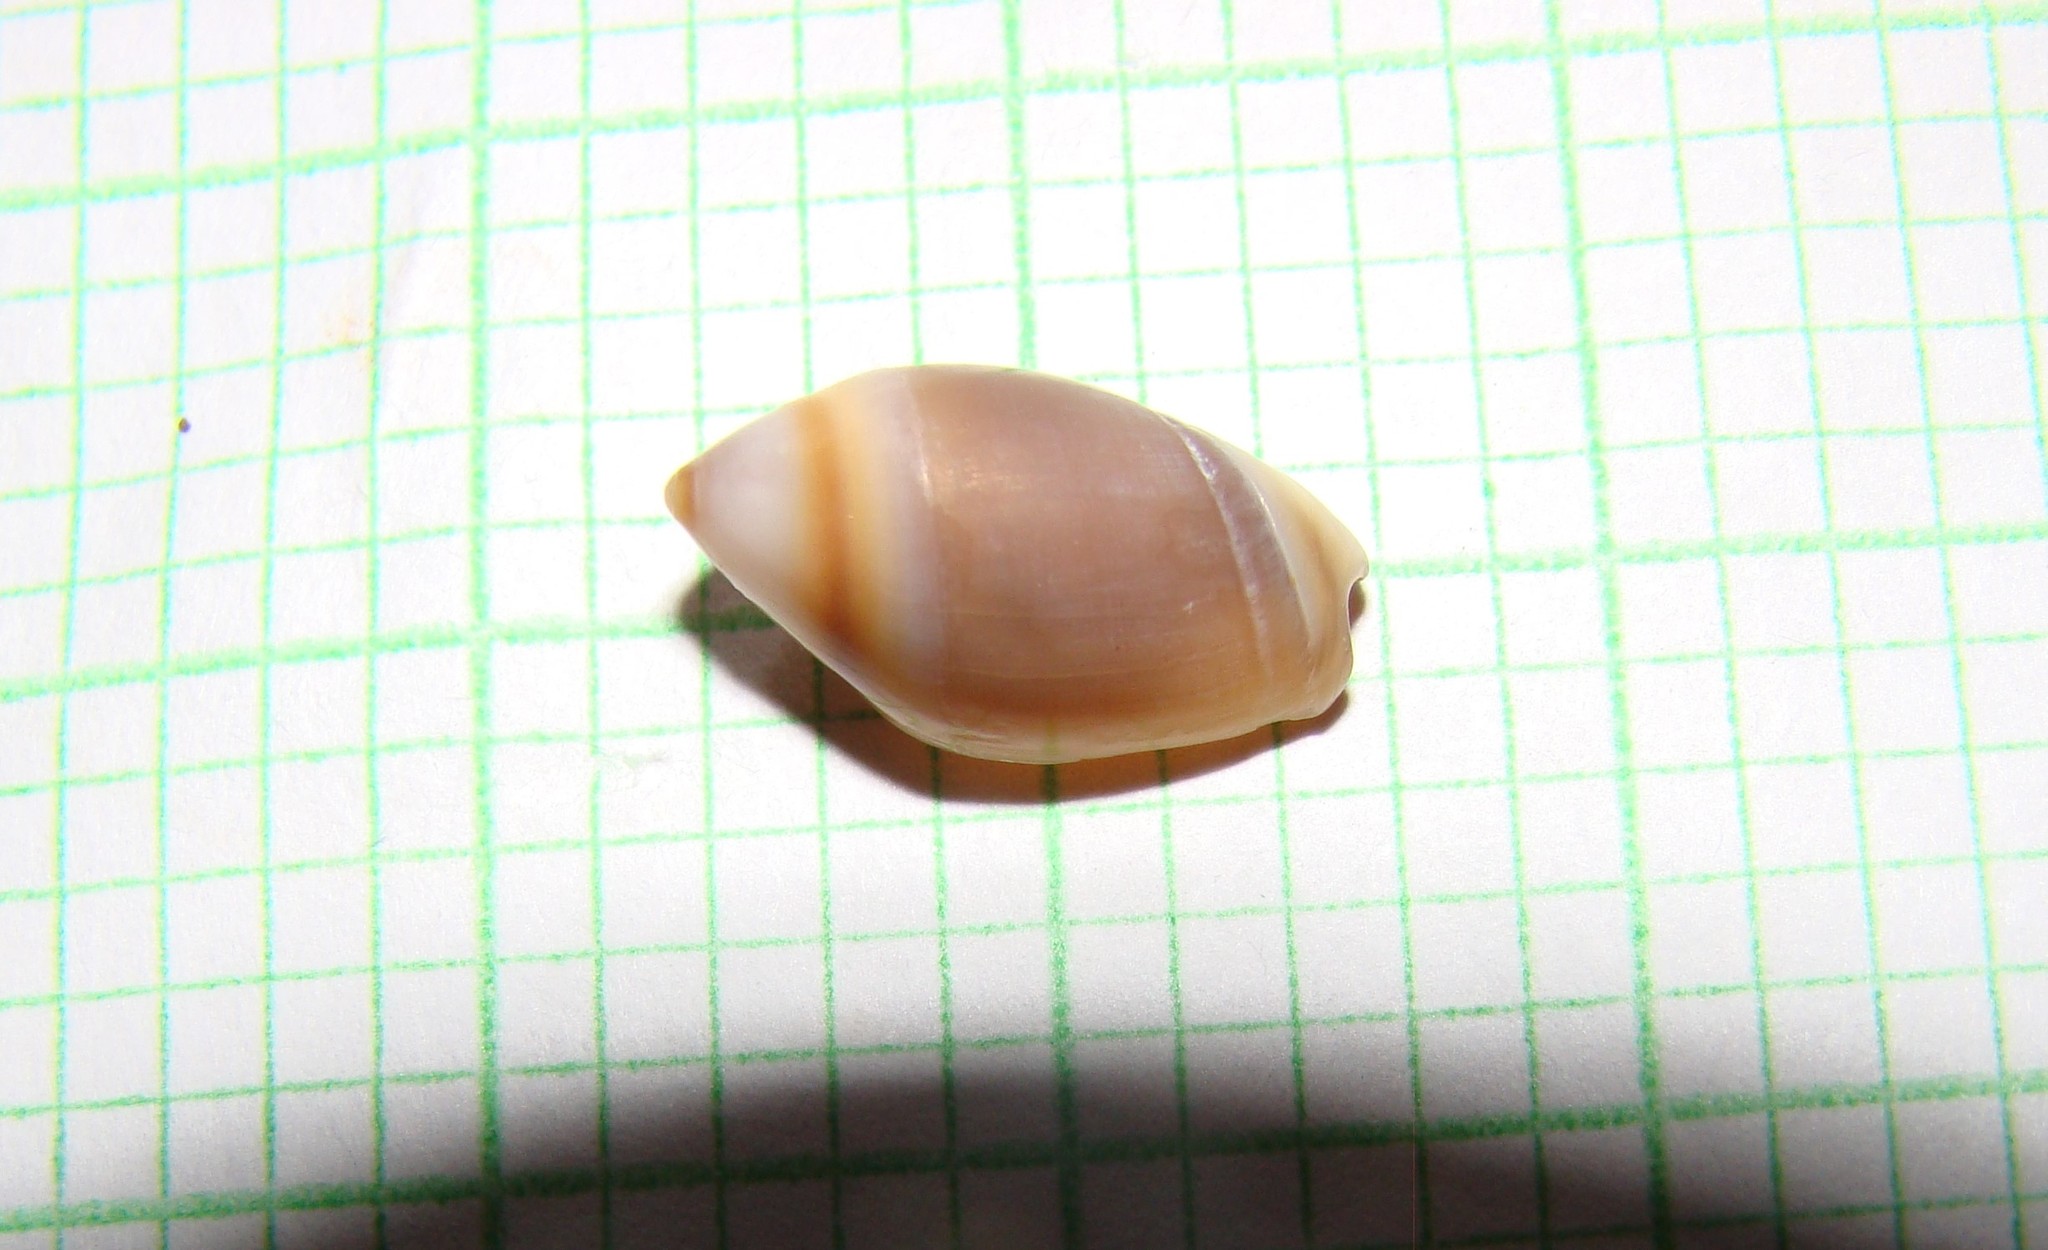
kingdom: Animalia
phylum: Mollusca
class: Gastropoda
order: Neogastropoda
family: Ancillariidae
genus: Amalda
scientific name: Amalda depressa
